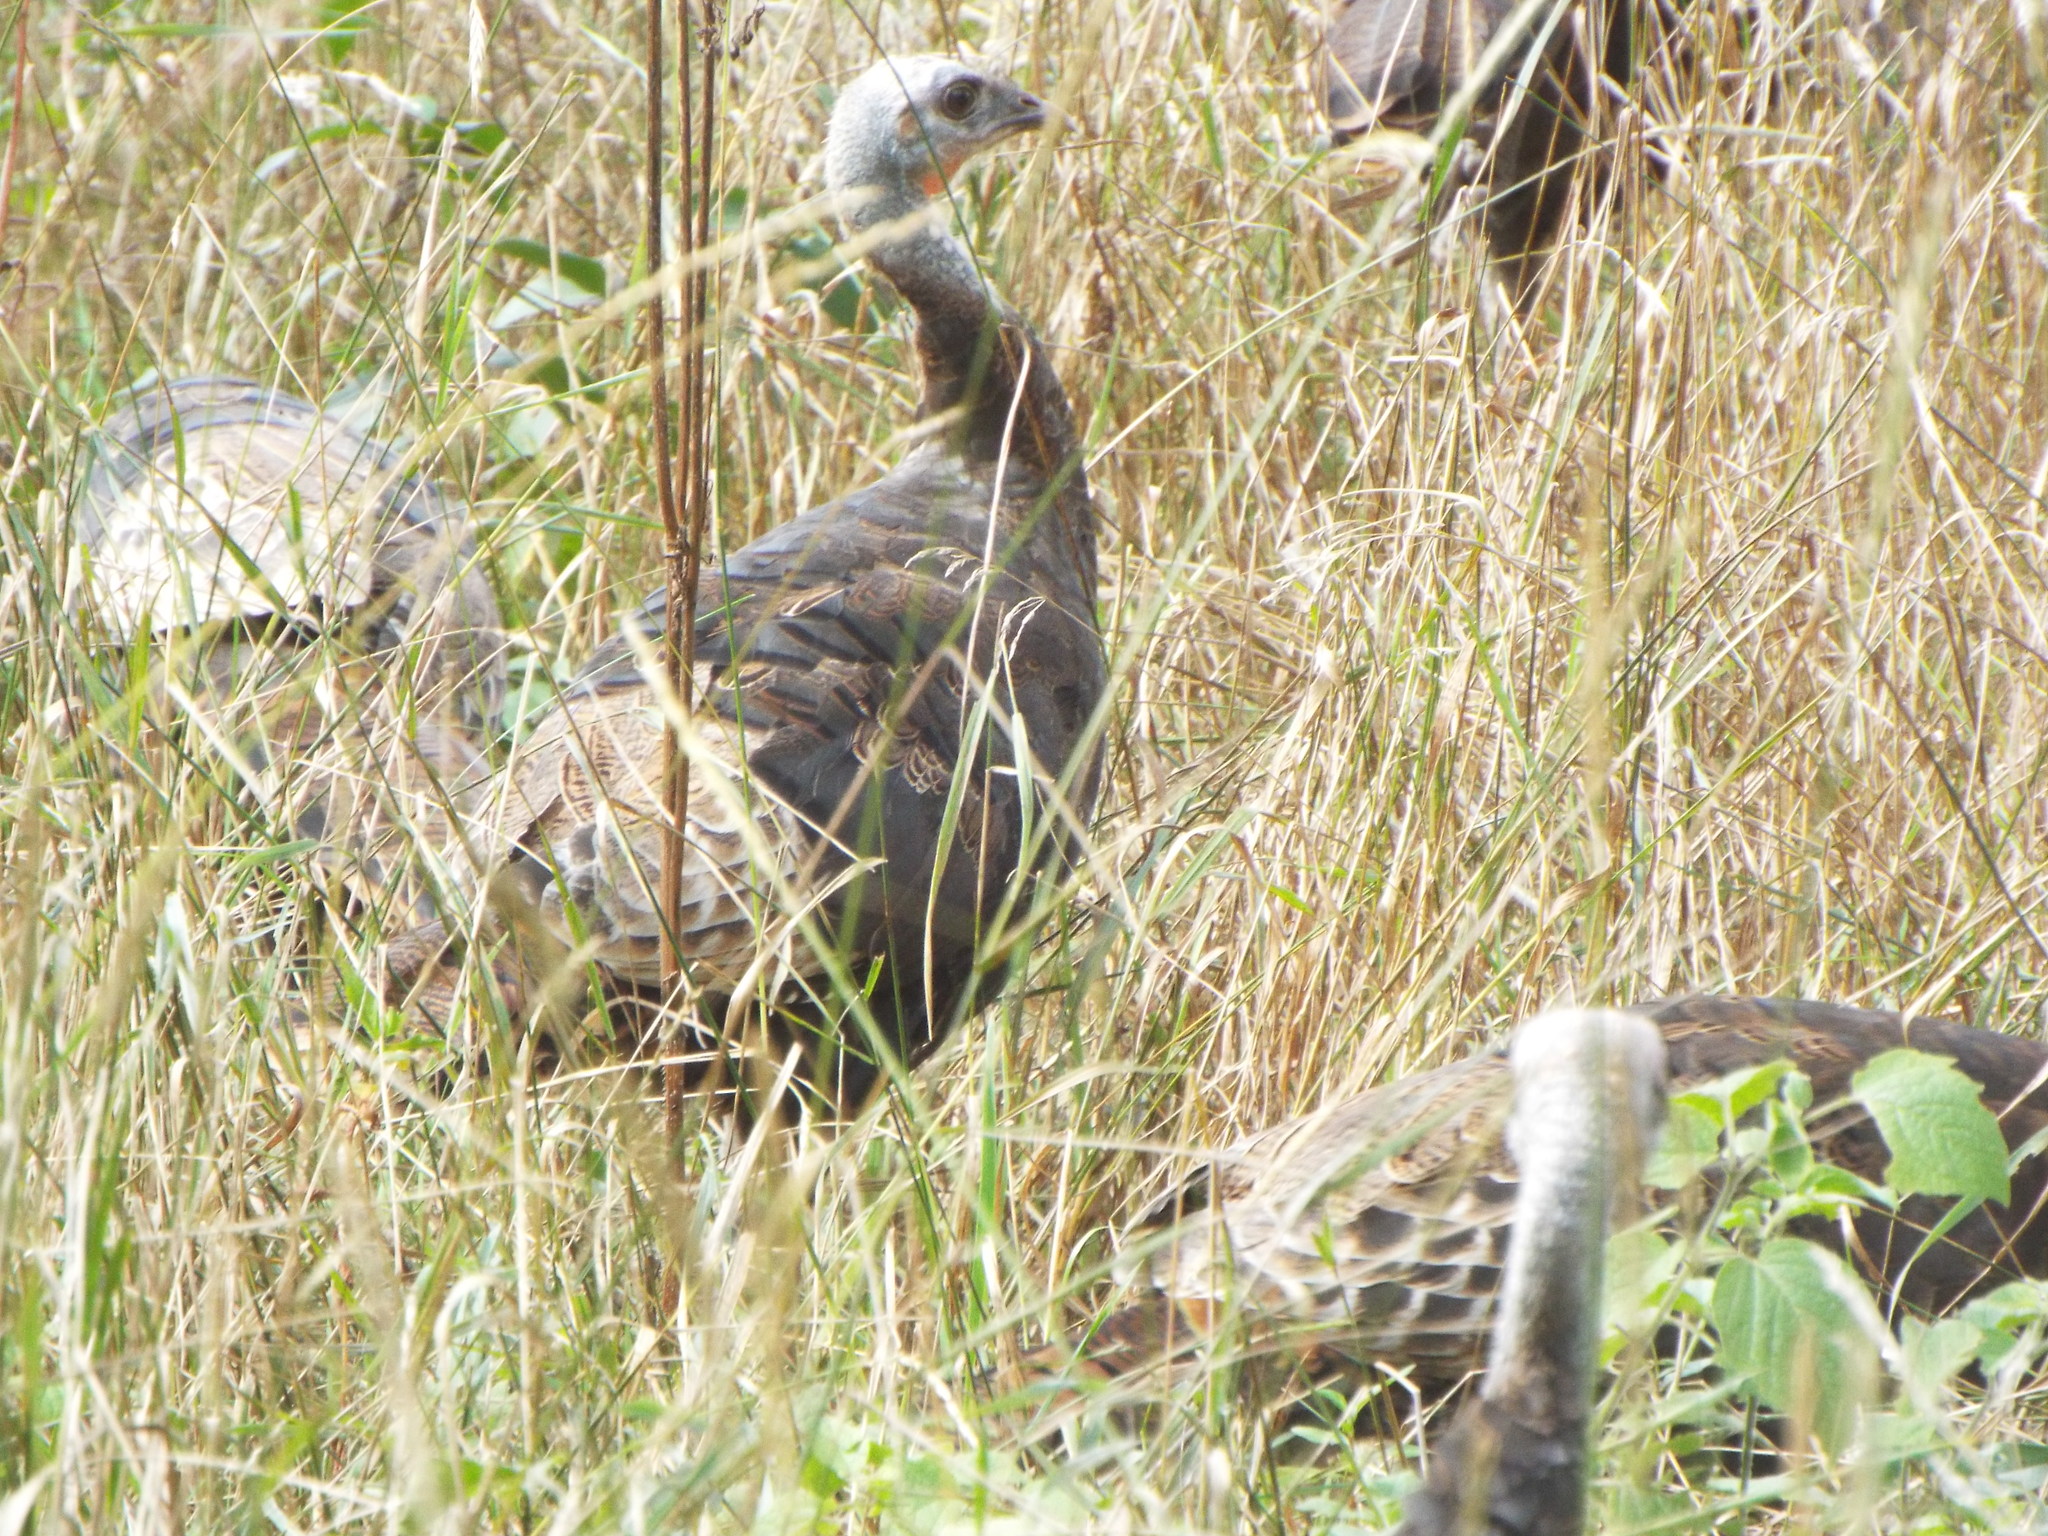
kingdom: Animalia
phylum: Chordata
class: Aves
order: Galliformes
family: Phasianidae
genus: Meleagris
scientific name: Meleagris gallopavo
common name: Wild turkey
